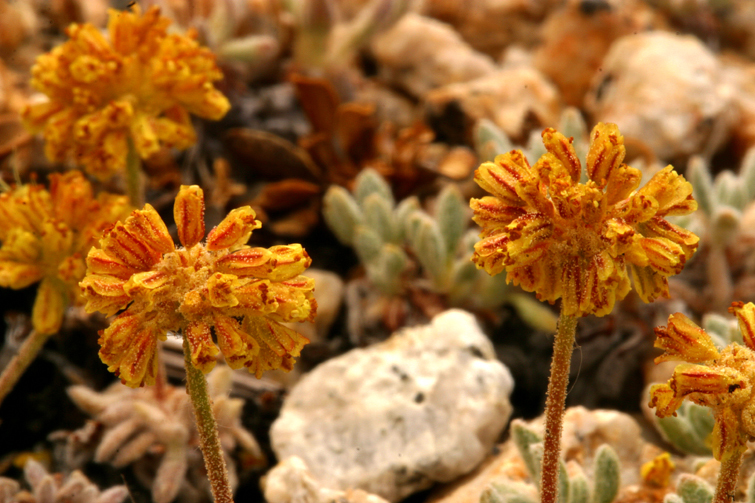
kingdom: Plantae
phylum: Tracheophyta
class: Magnoliopsida
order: Caryophyllales
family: Polygonaceae
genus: Eriogonum
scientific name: Eriogonum rosense
